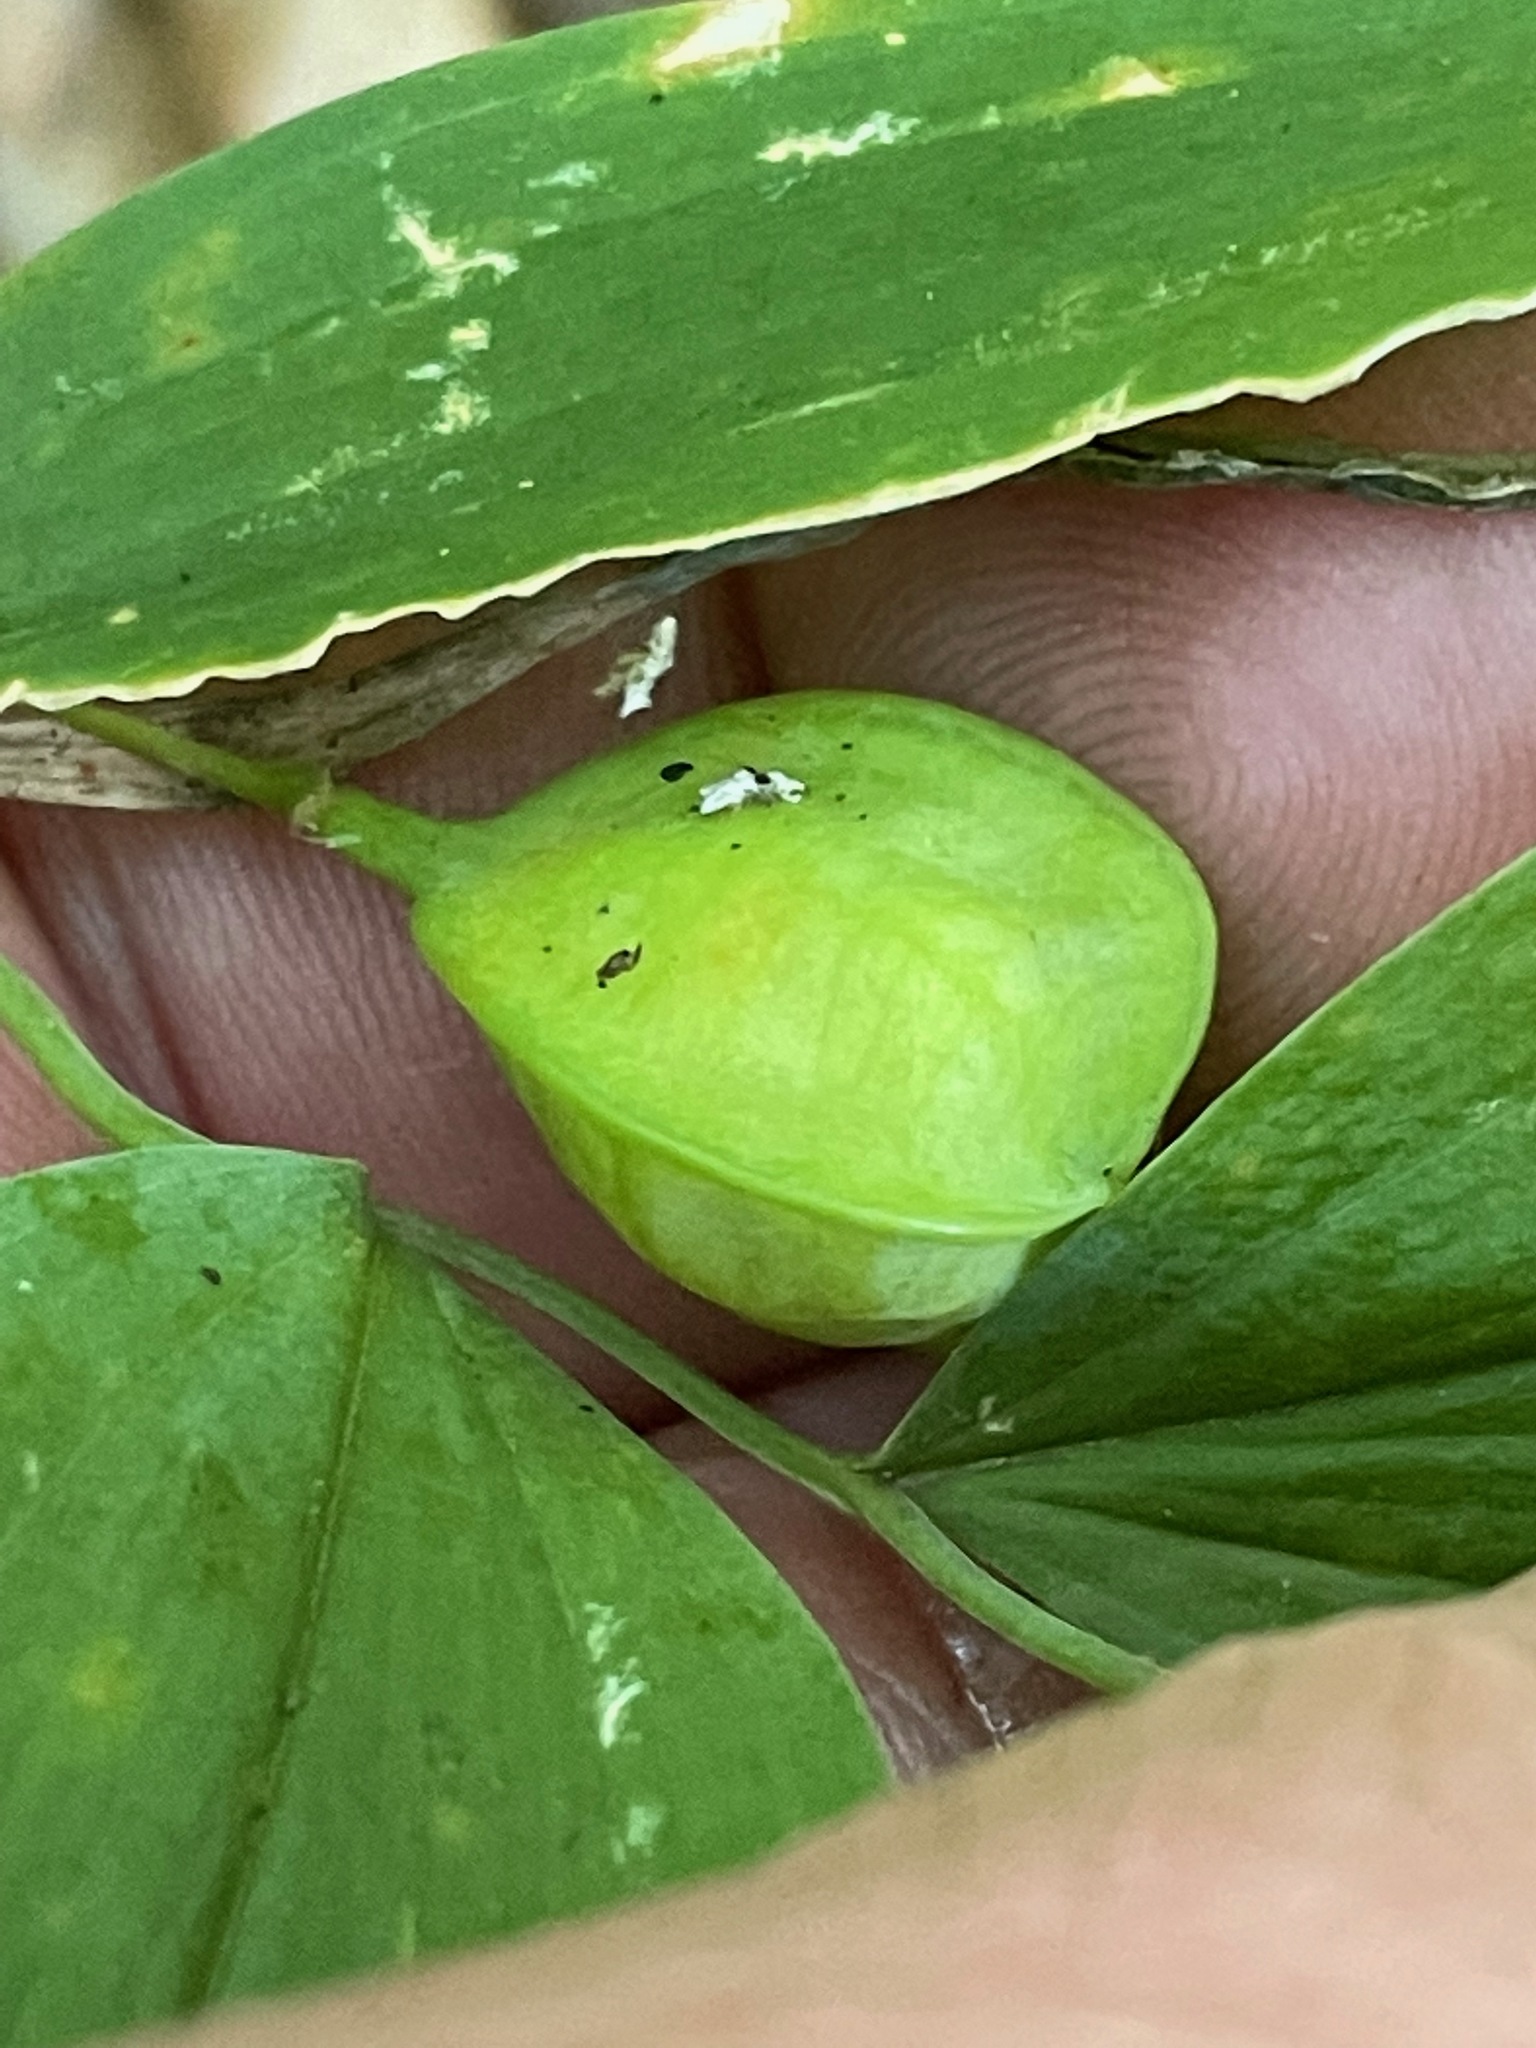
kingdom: Plantae
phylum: Tracheophyta
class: Liliopsida
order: Liliales
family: Colchicaceae
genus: Uvularia
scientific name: Uvularia sessilifolia
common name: Straw-lily
